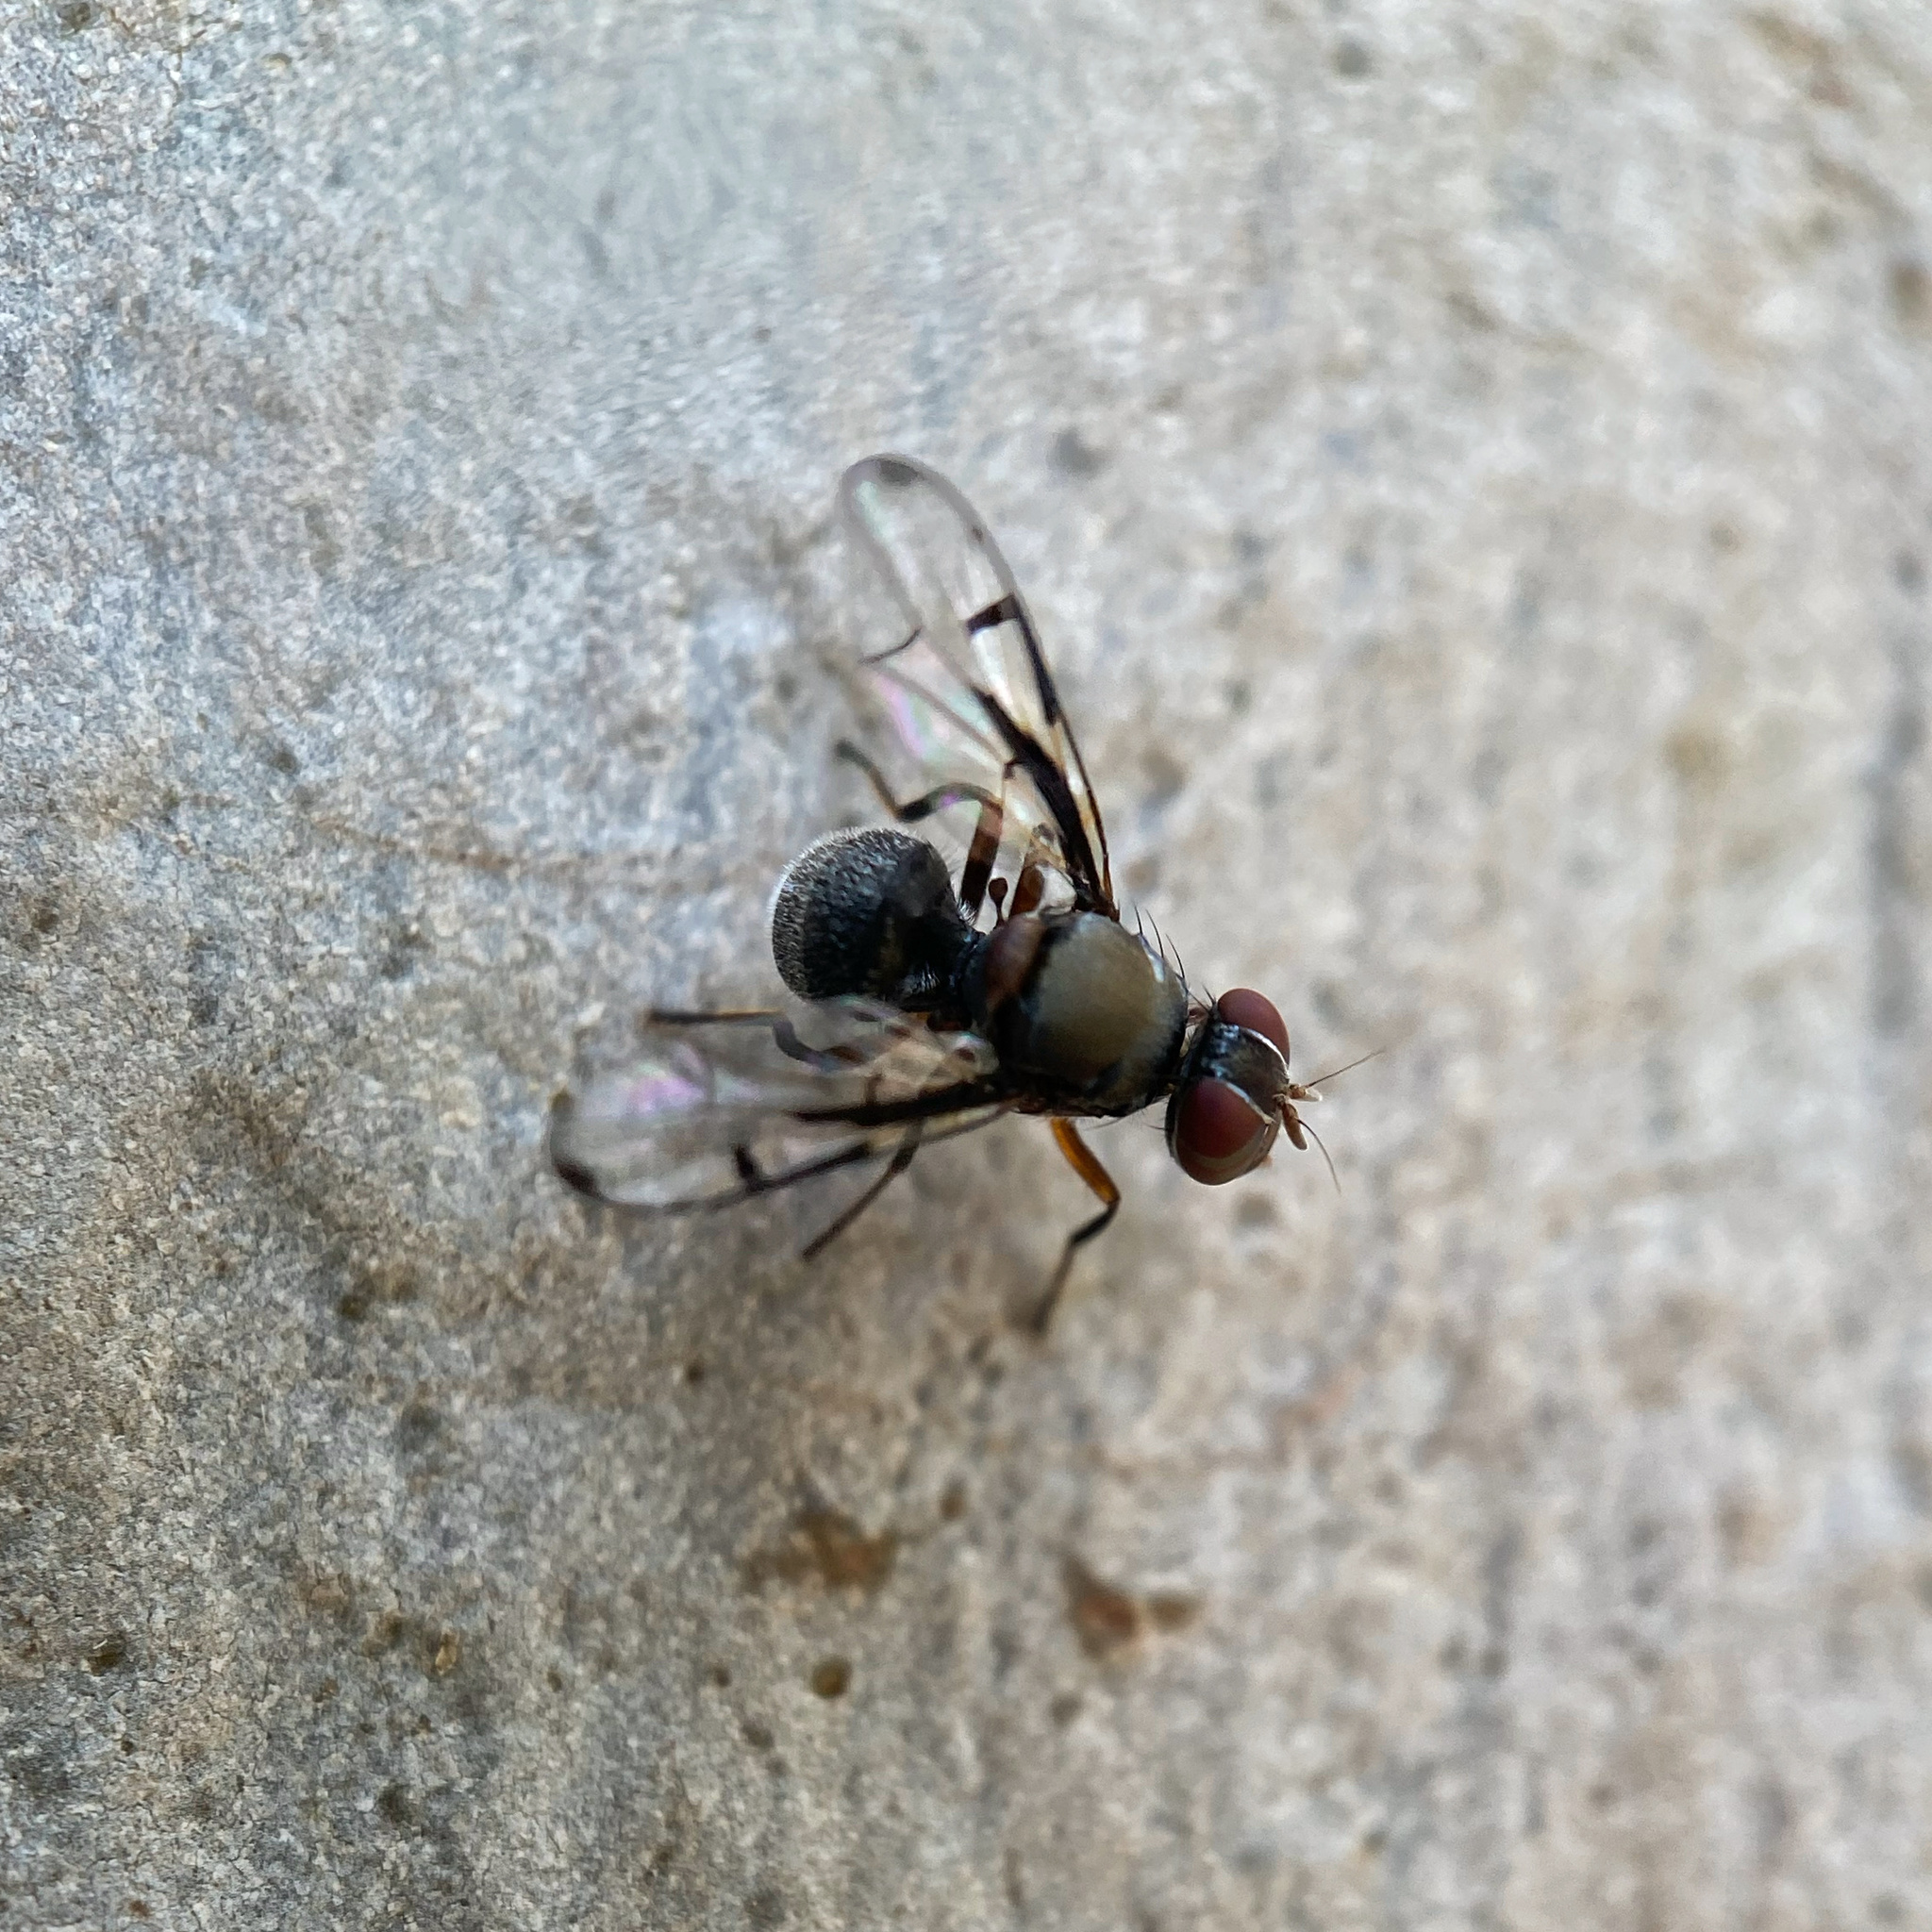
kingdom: Animalia
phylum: Arthropoda
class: Insecta
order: Diptera
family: Platystomatidae
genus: Pogonortalis
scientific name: Pogonortalis doclea
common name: Boatman fly
